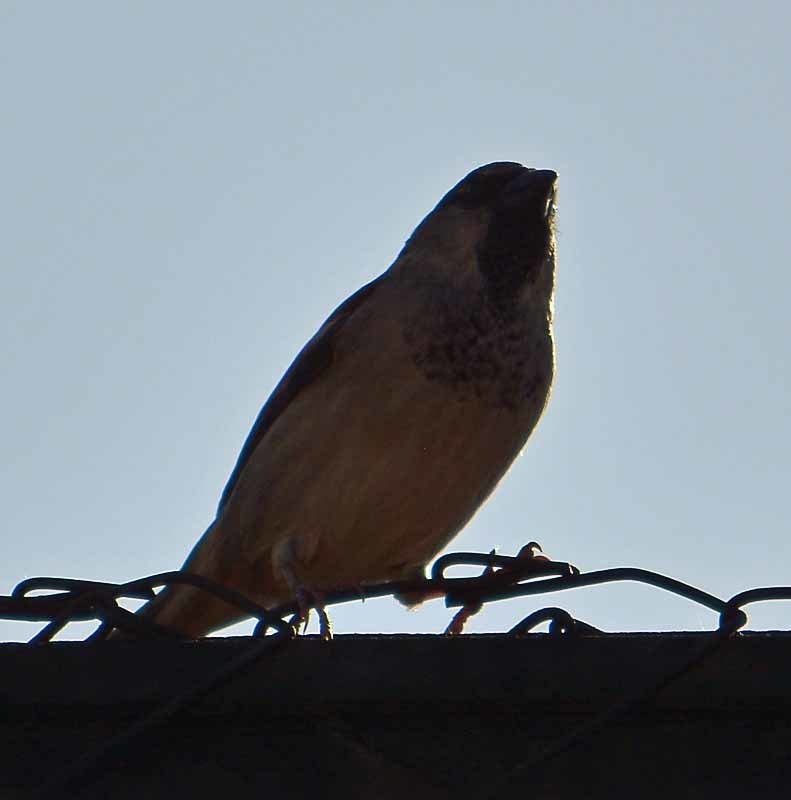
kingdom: Animalia
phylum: Chordata
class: Aves
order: Passeriformes
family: Passeridae
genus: Passer
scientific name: Passer domesticus
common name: House sparrow
